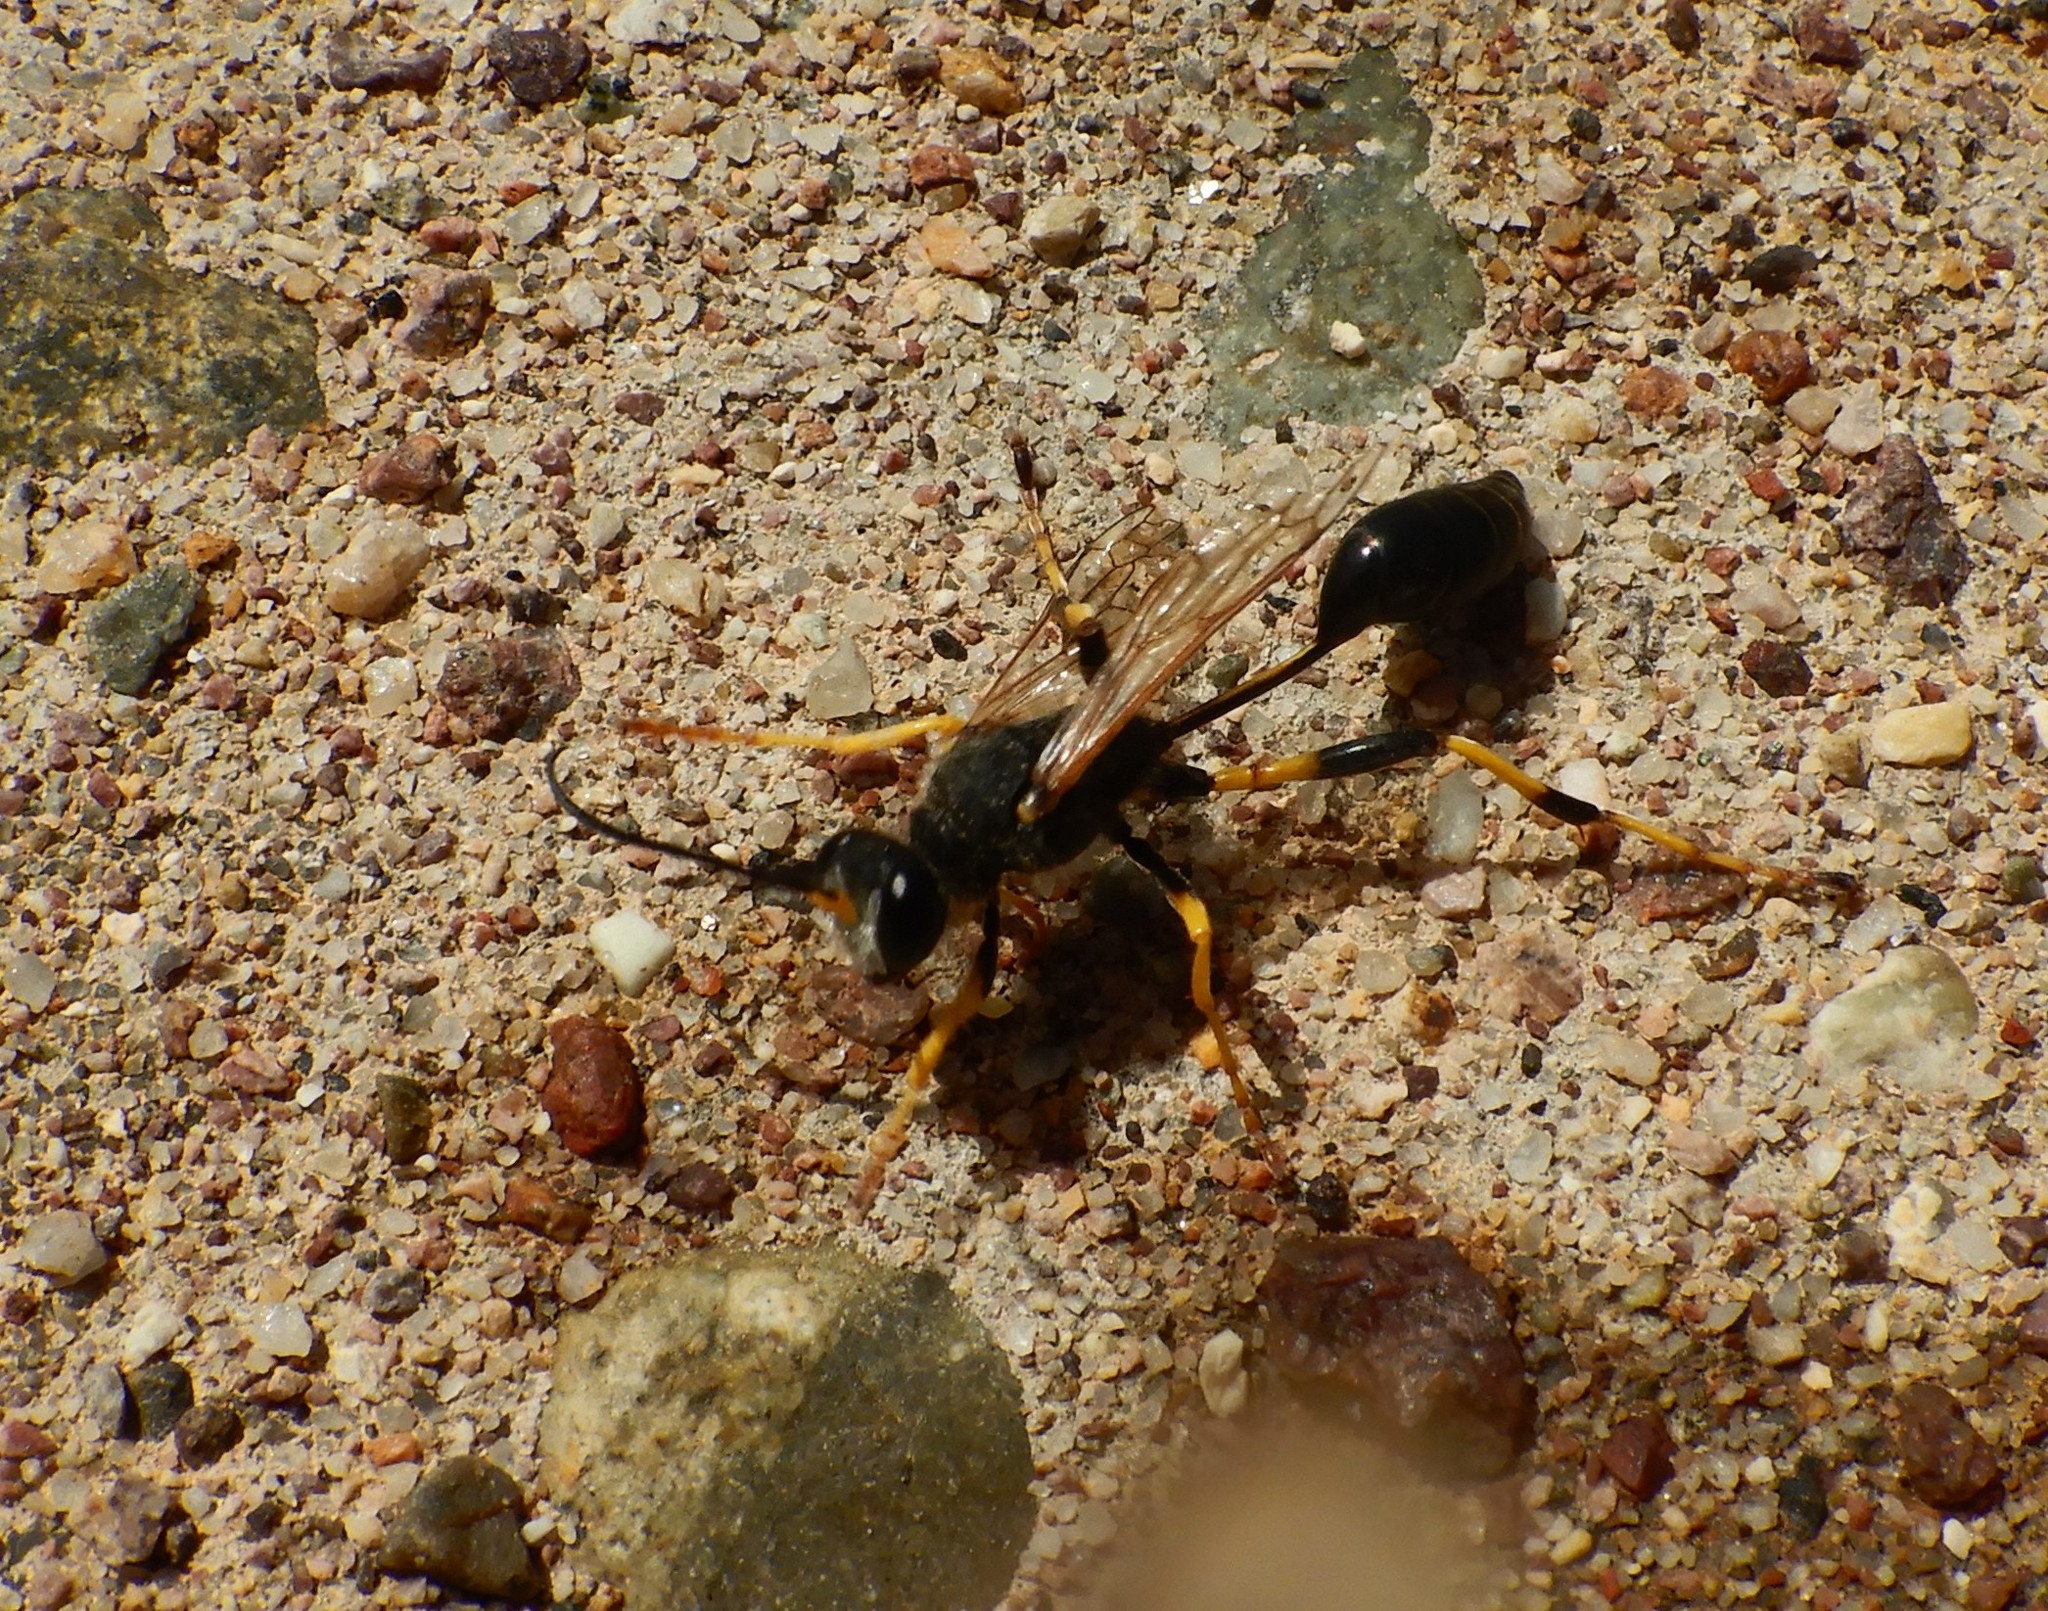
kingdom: Animalia
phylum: Arthropoda
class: Insecta
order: Hymenoptera
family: Sphecidae
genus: Sceliphron
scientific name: Sceliphron destillatorium
